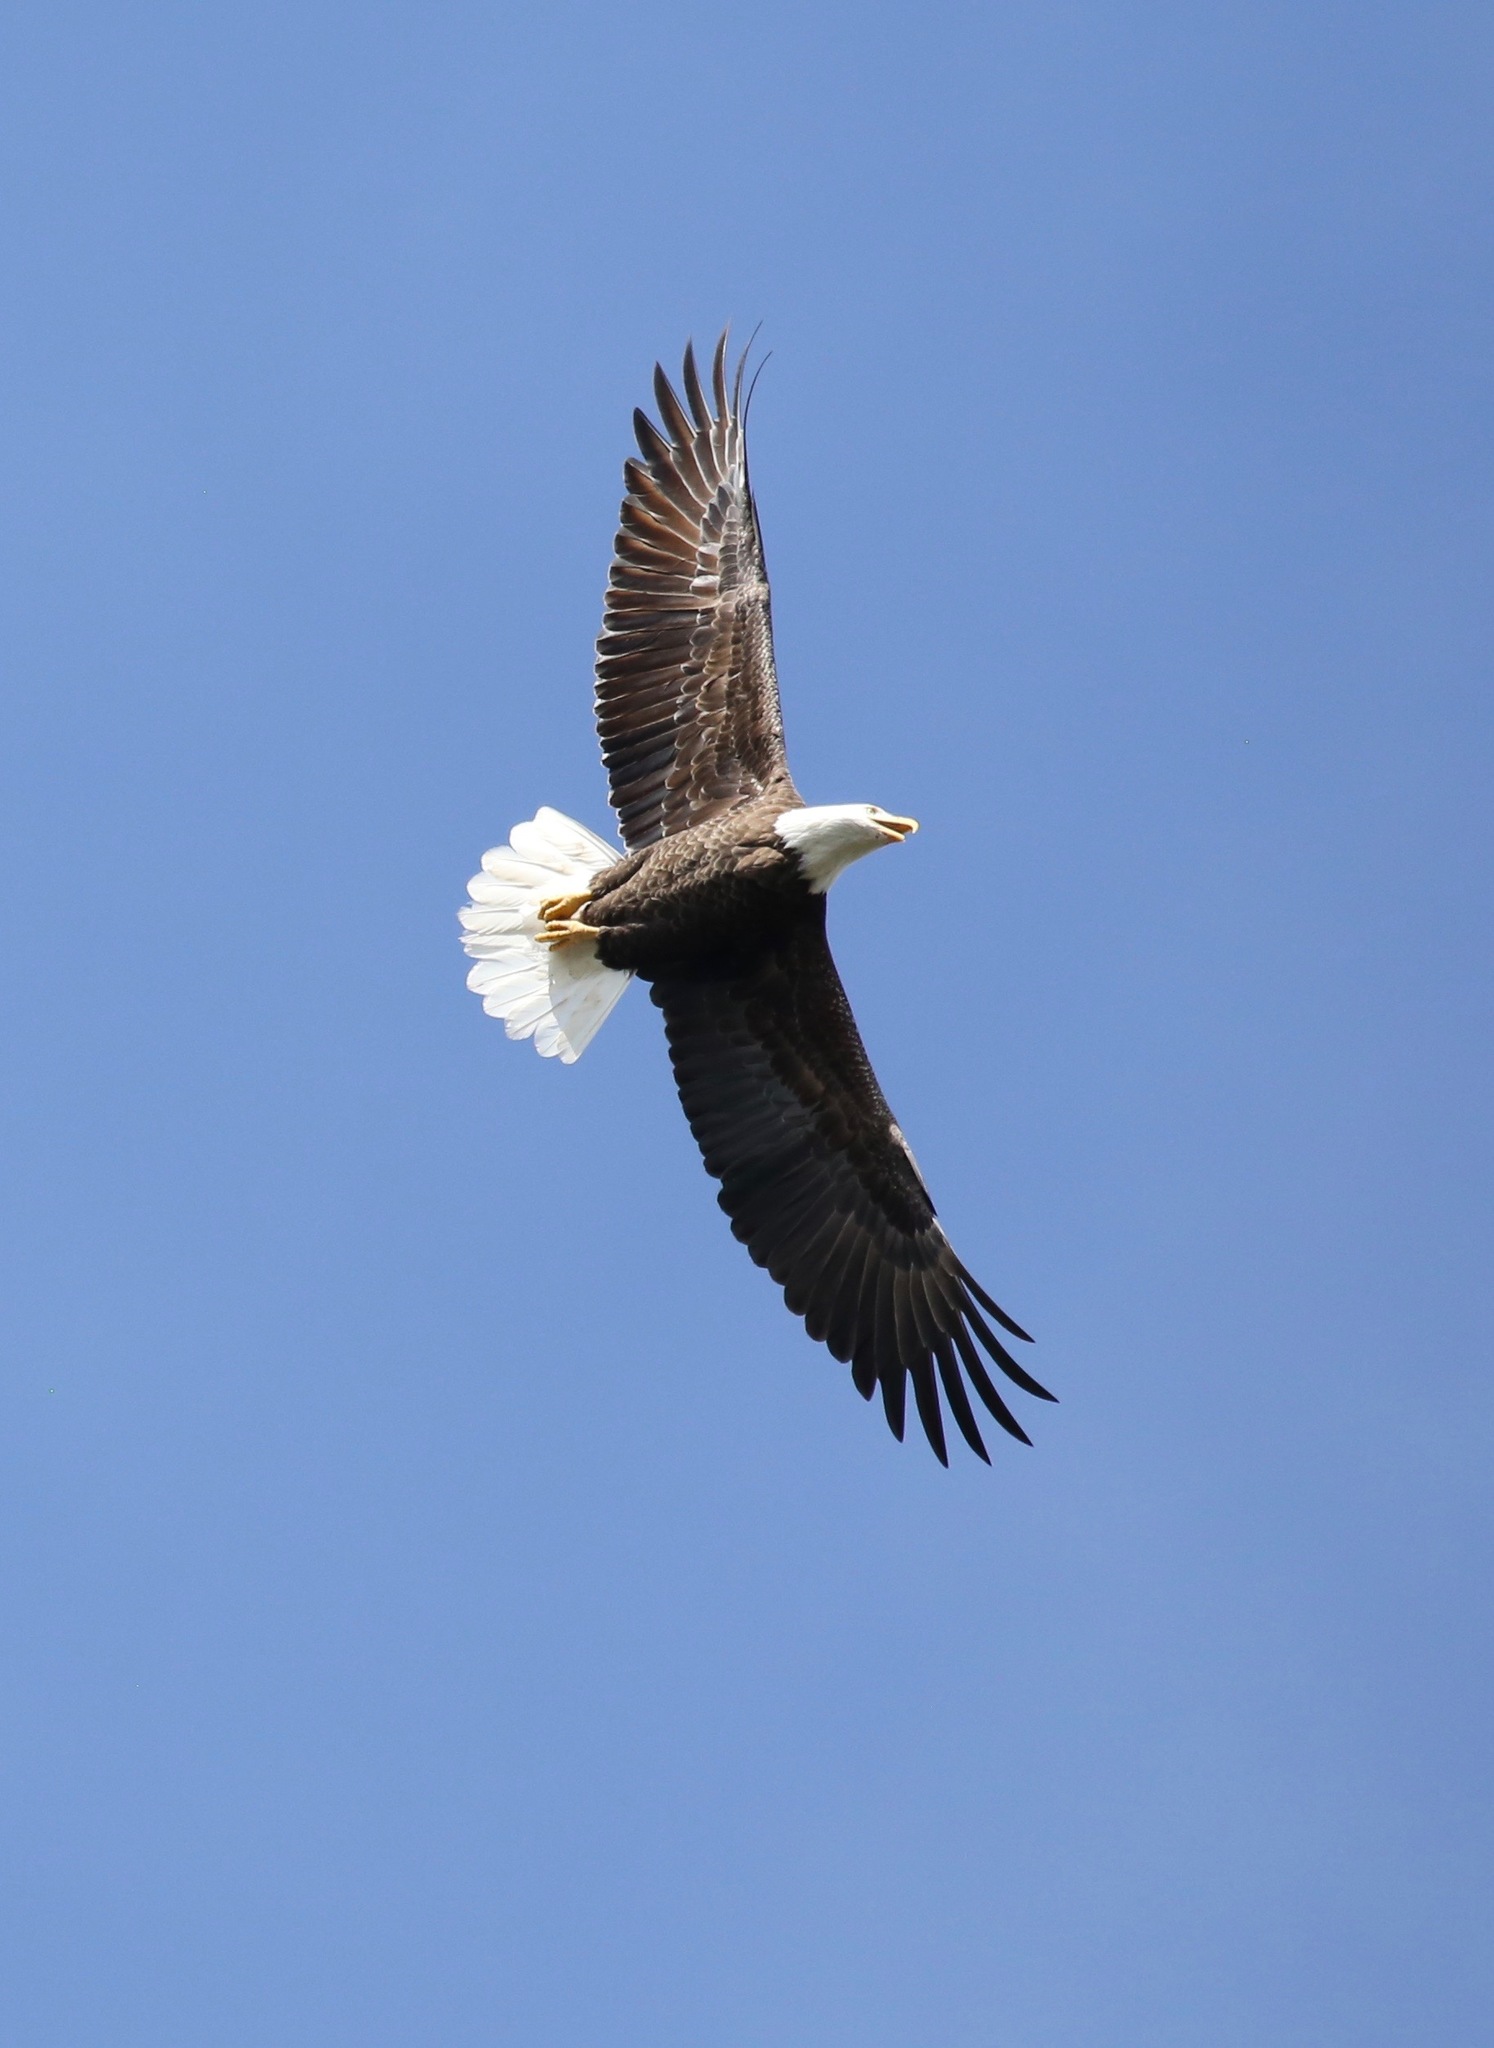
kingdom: Animalia
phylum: Chordata
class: Aves
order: Accipitriformes
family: Accipitridae
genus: Haliaeetus
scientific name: Haliaeetus leucocephalus
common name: Bald eagle
